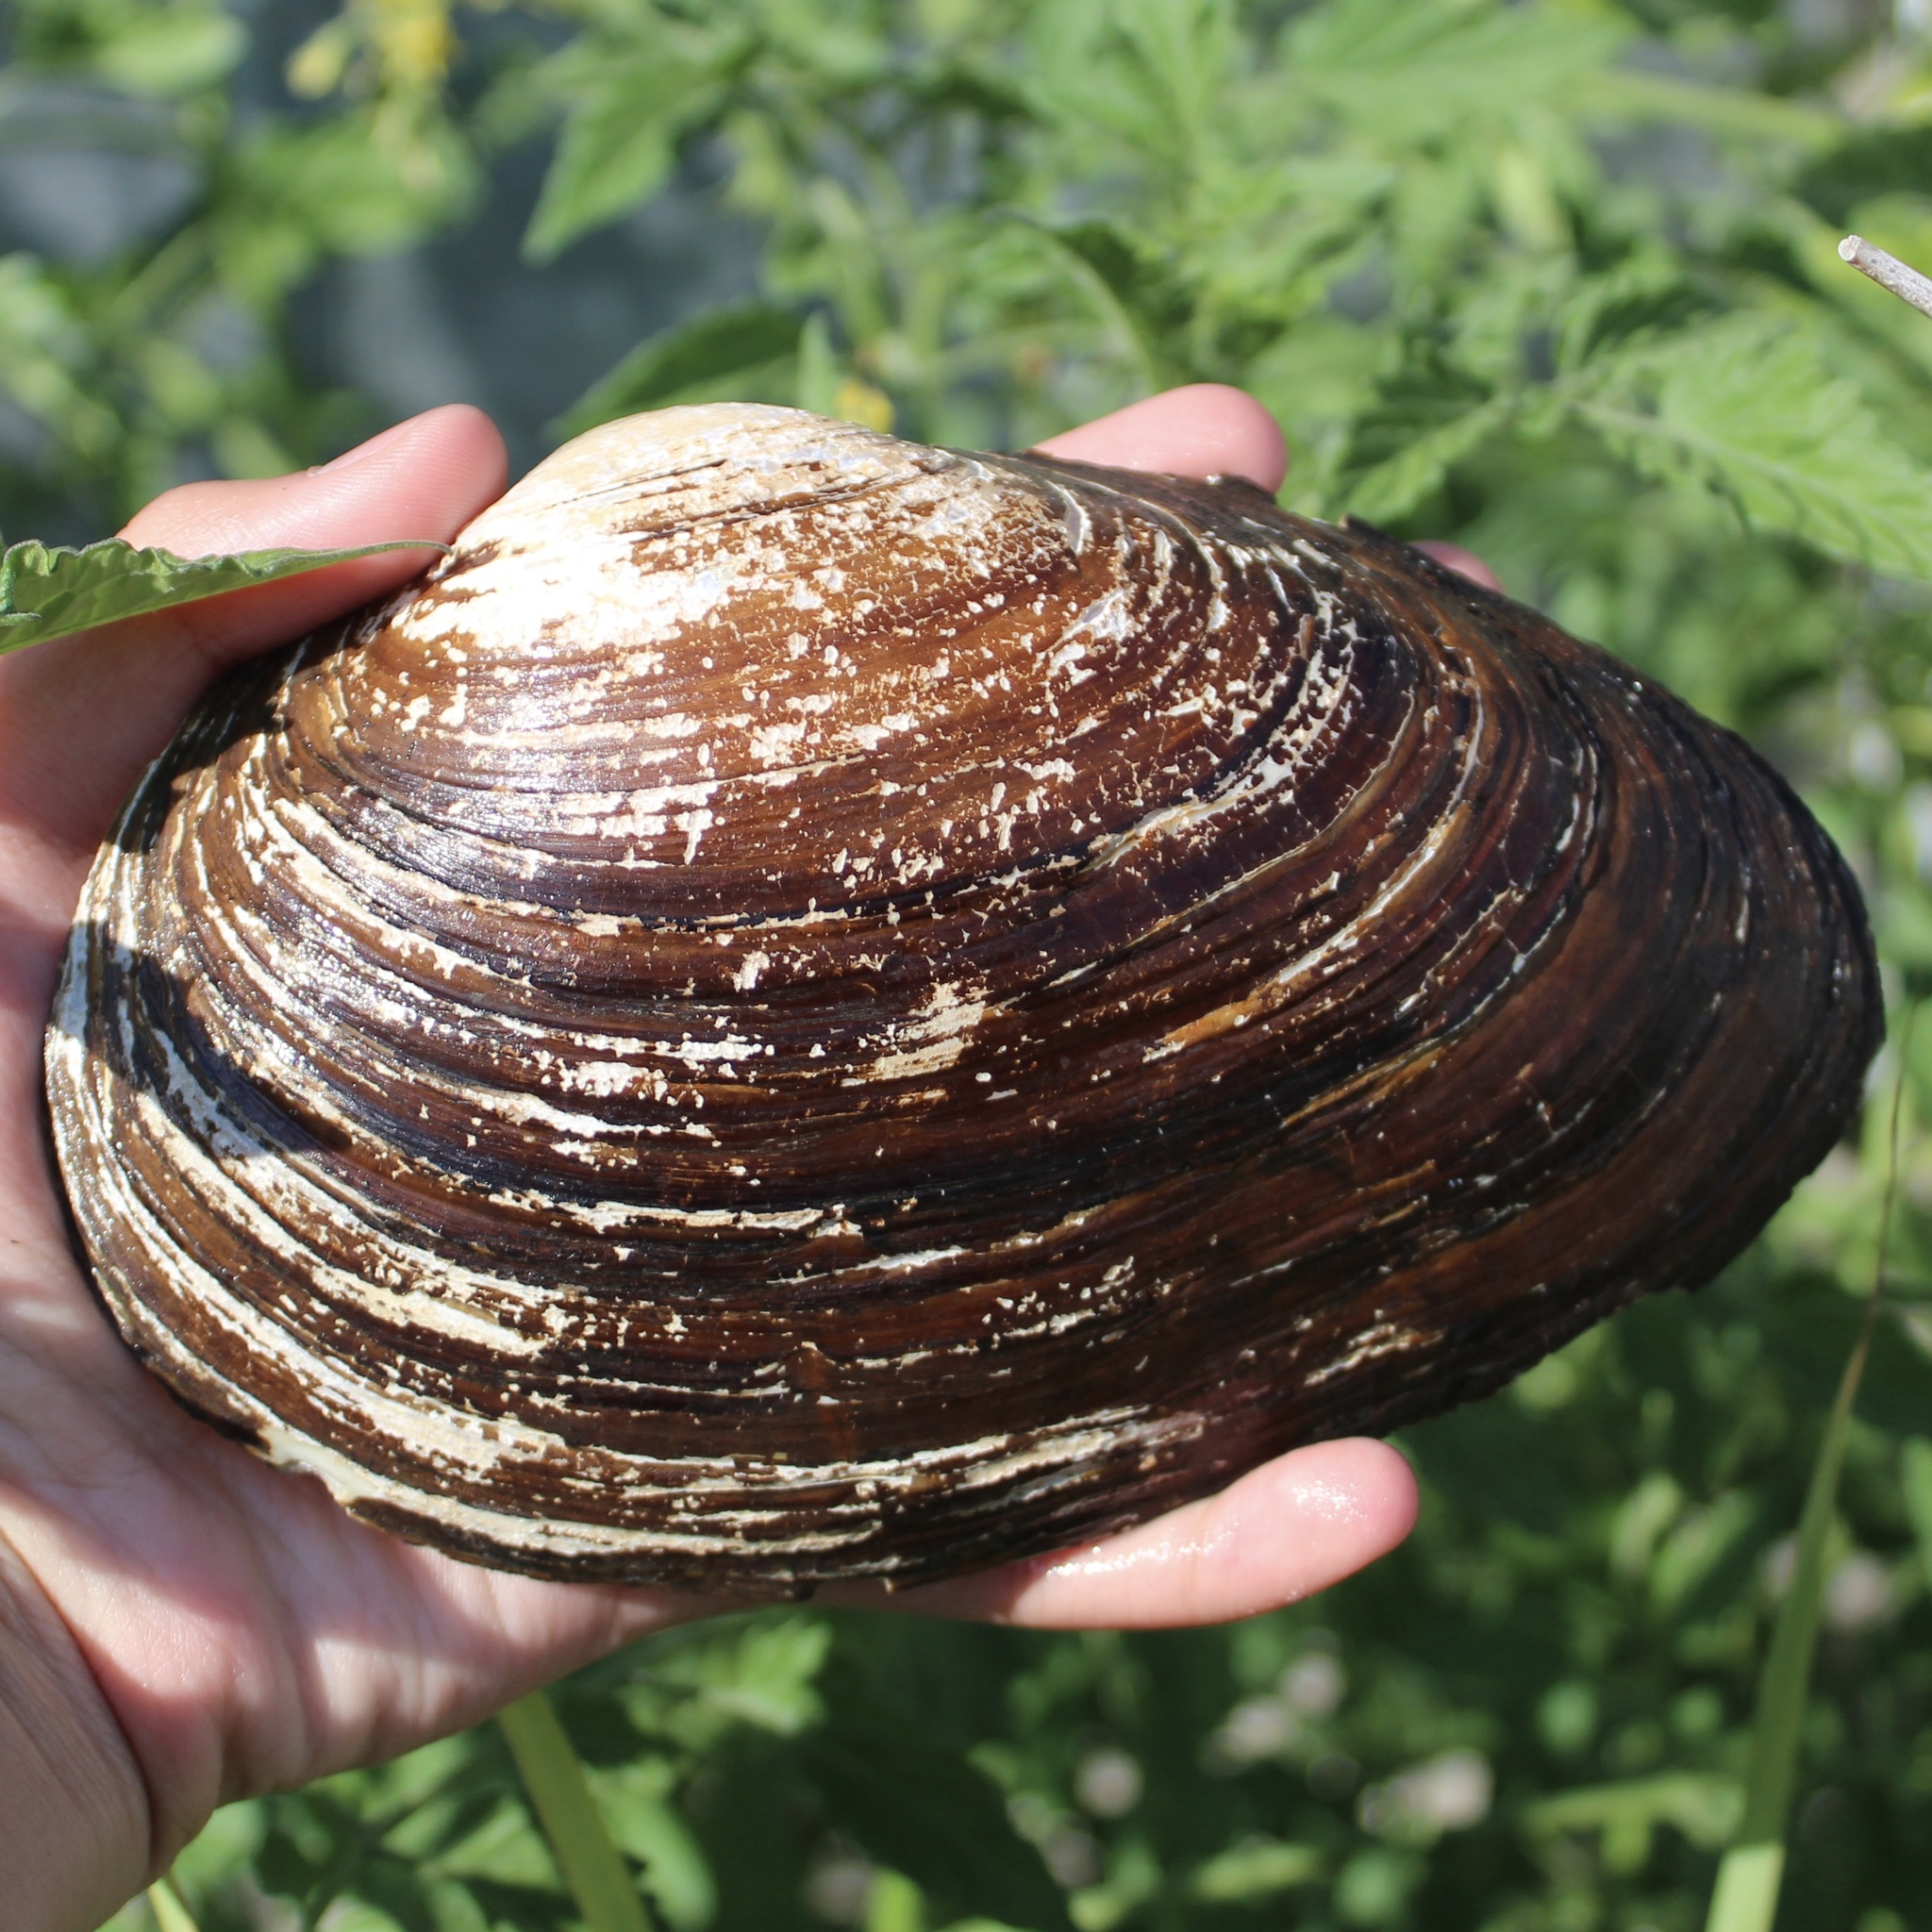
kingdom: Animalia
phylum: Mollusca
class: Bivalvia
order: Unionida
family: Unionidae
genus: Pyganodon
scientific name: Pyganodon grandis
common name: Giant floater
